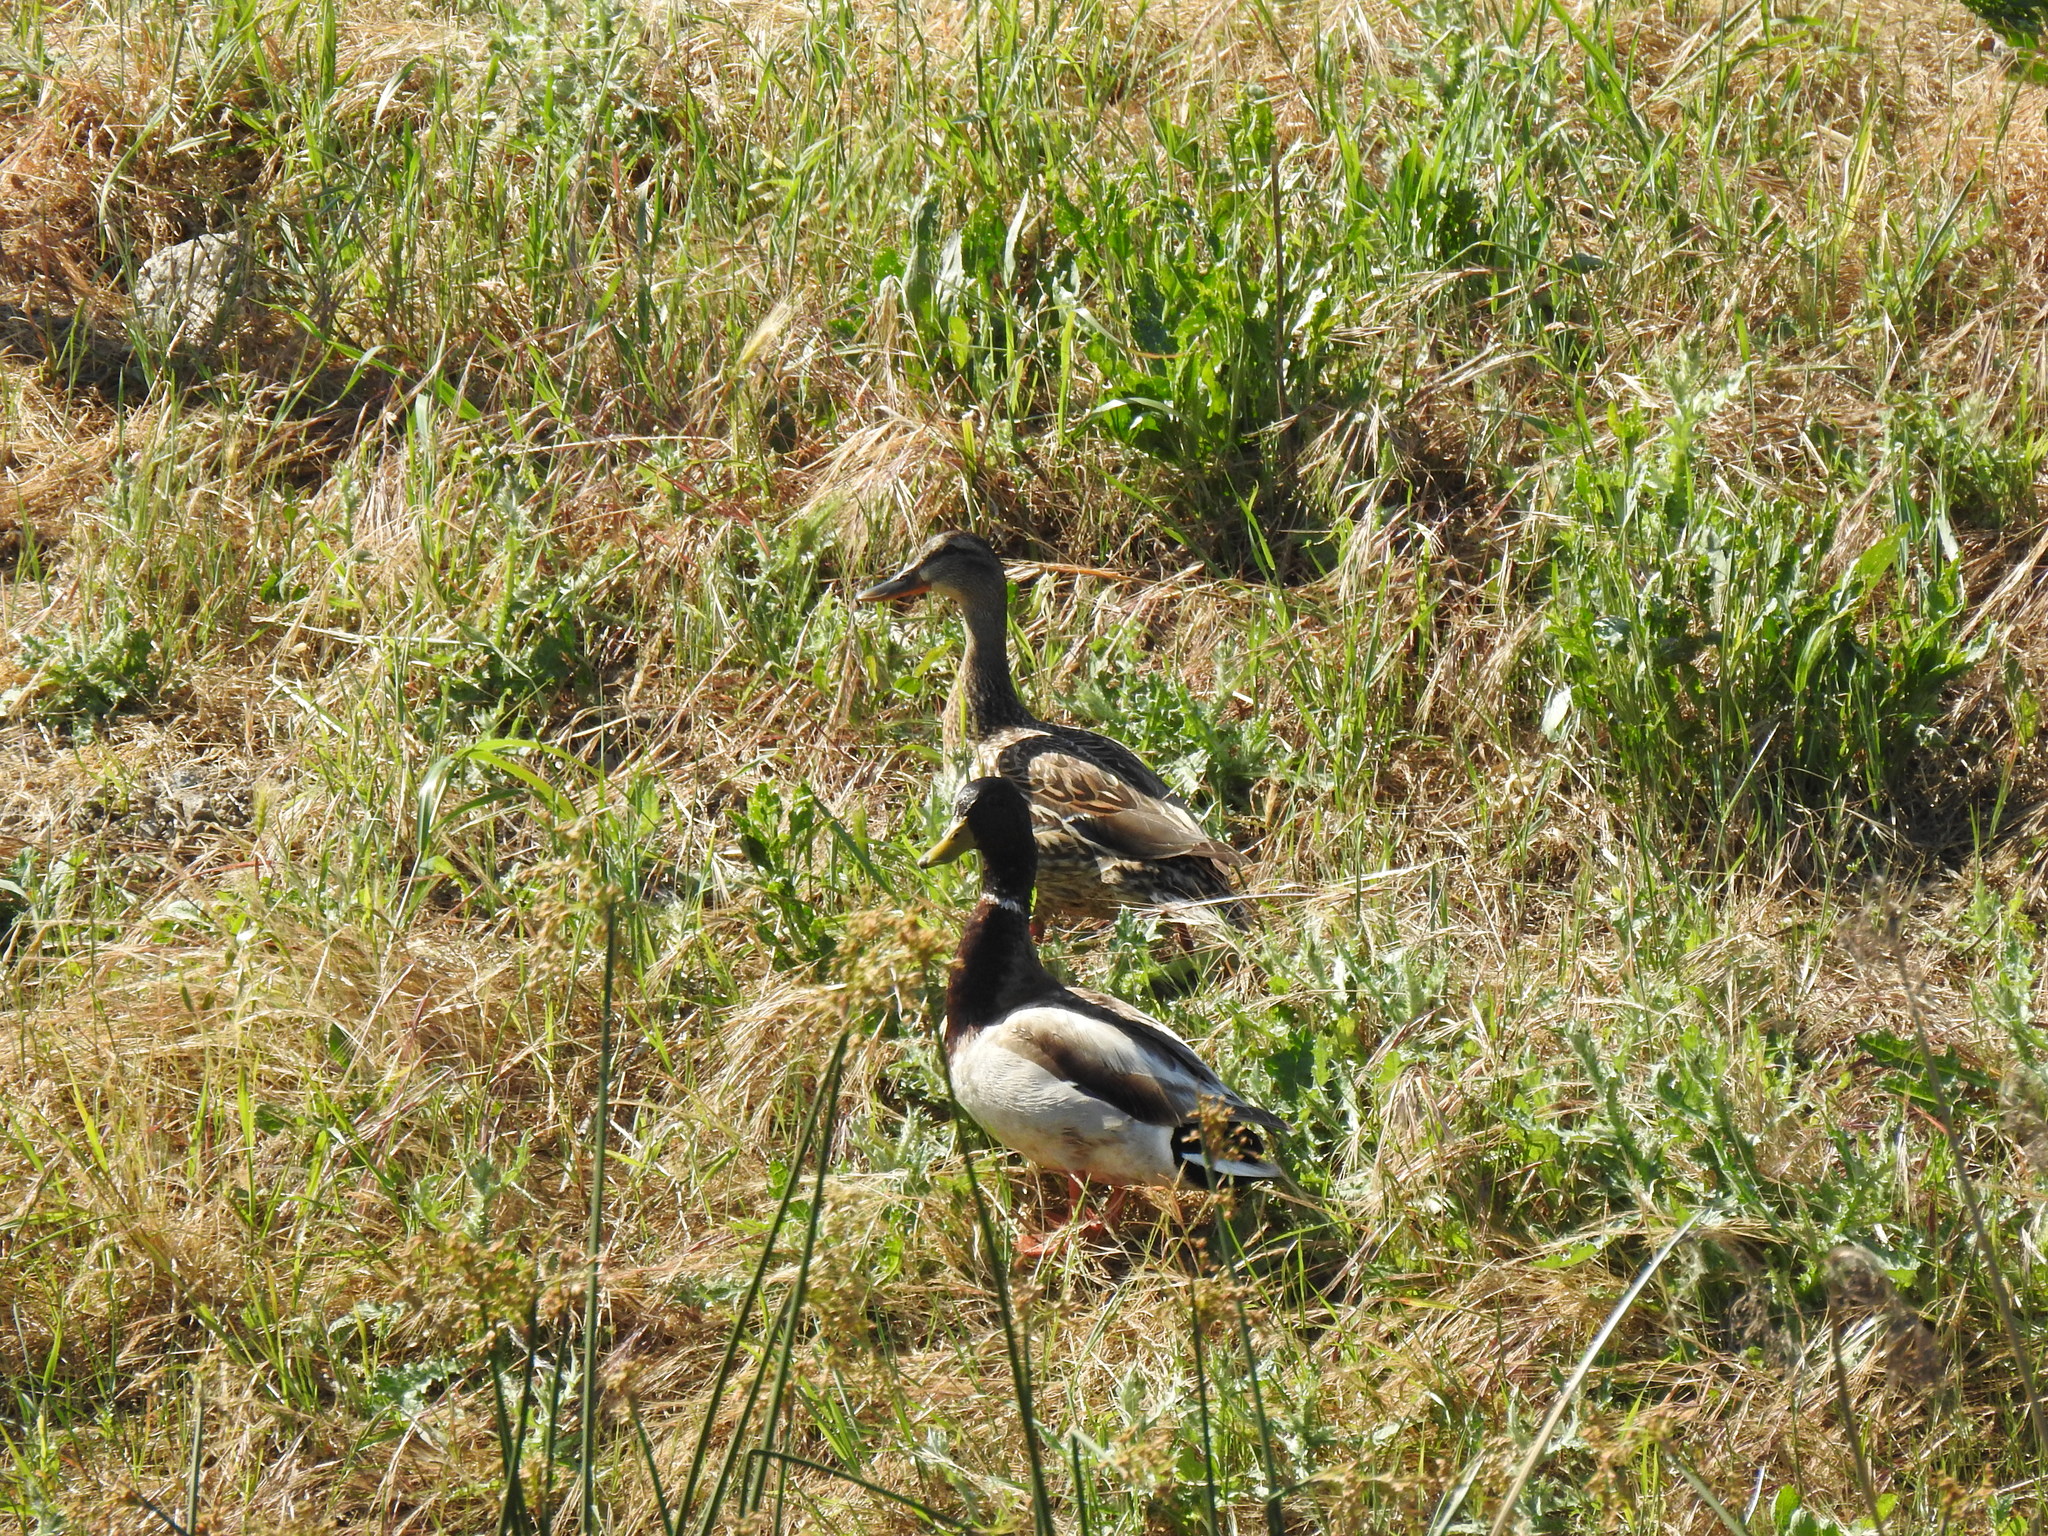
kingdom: Animalia
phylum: Chordata
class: Aves
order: Anseriformes
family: Anatidae
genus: Anas
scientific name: Anas platyrhynchos
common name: Mallard
